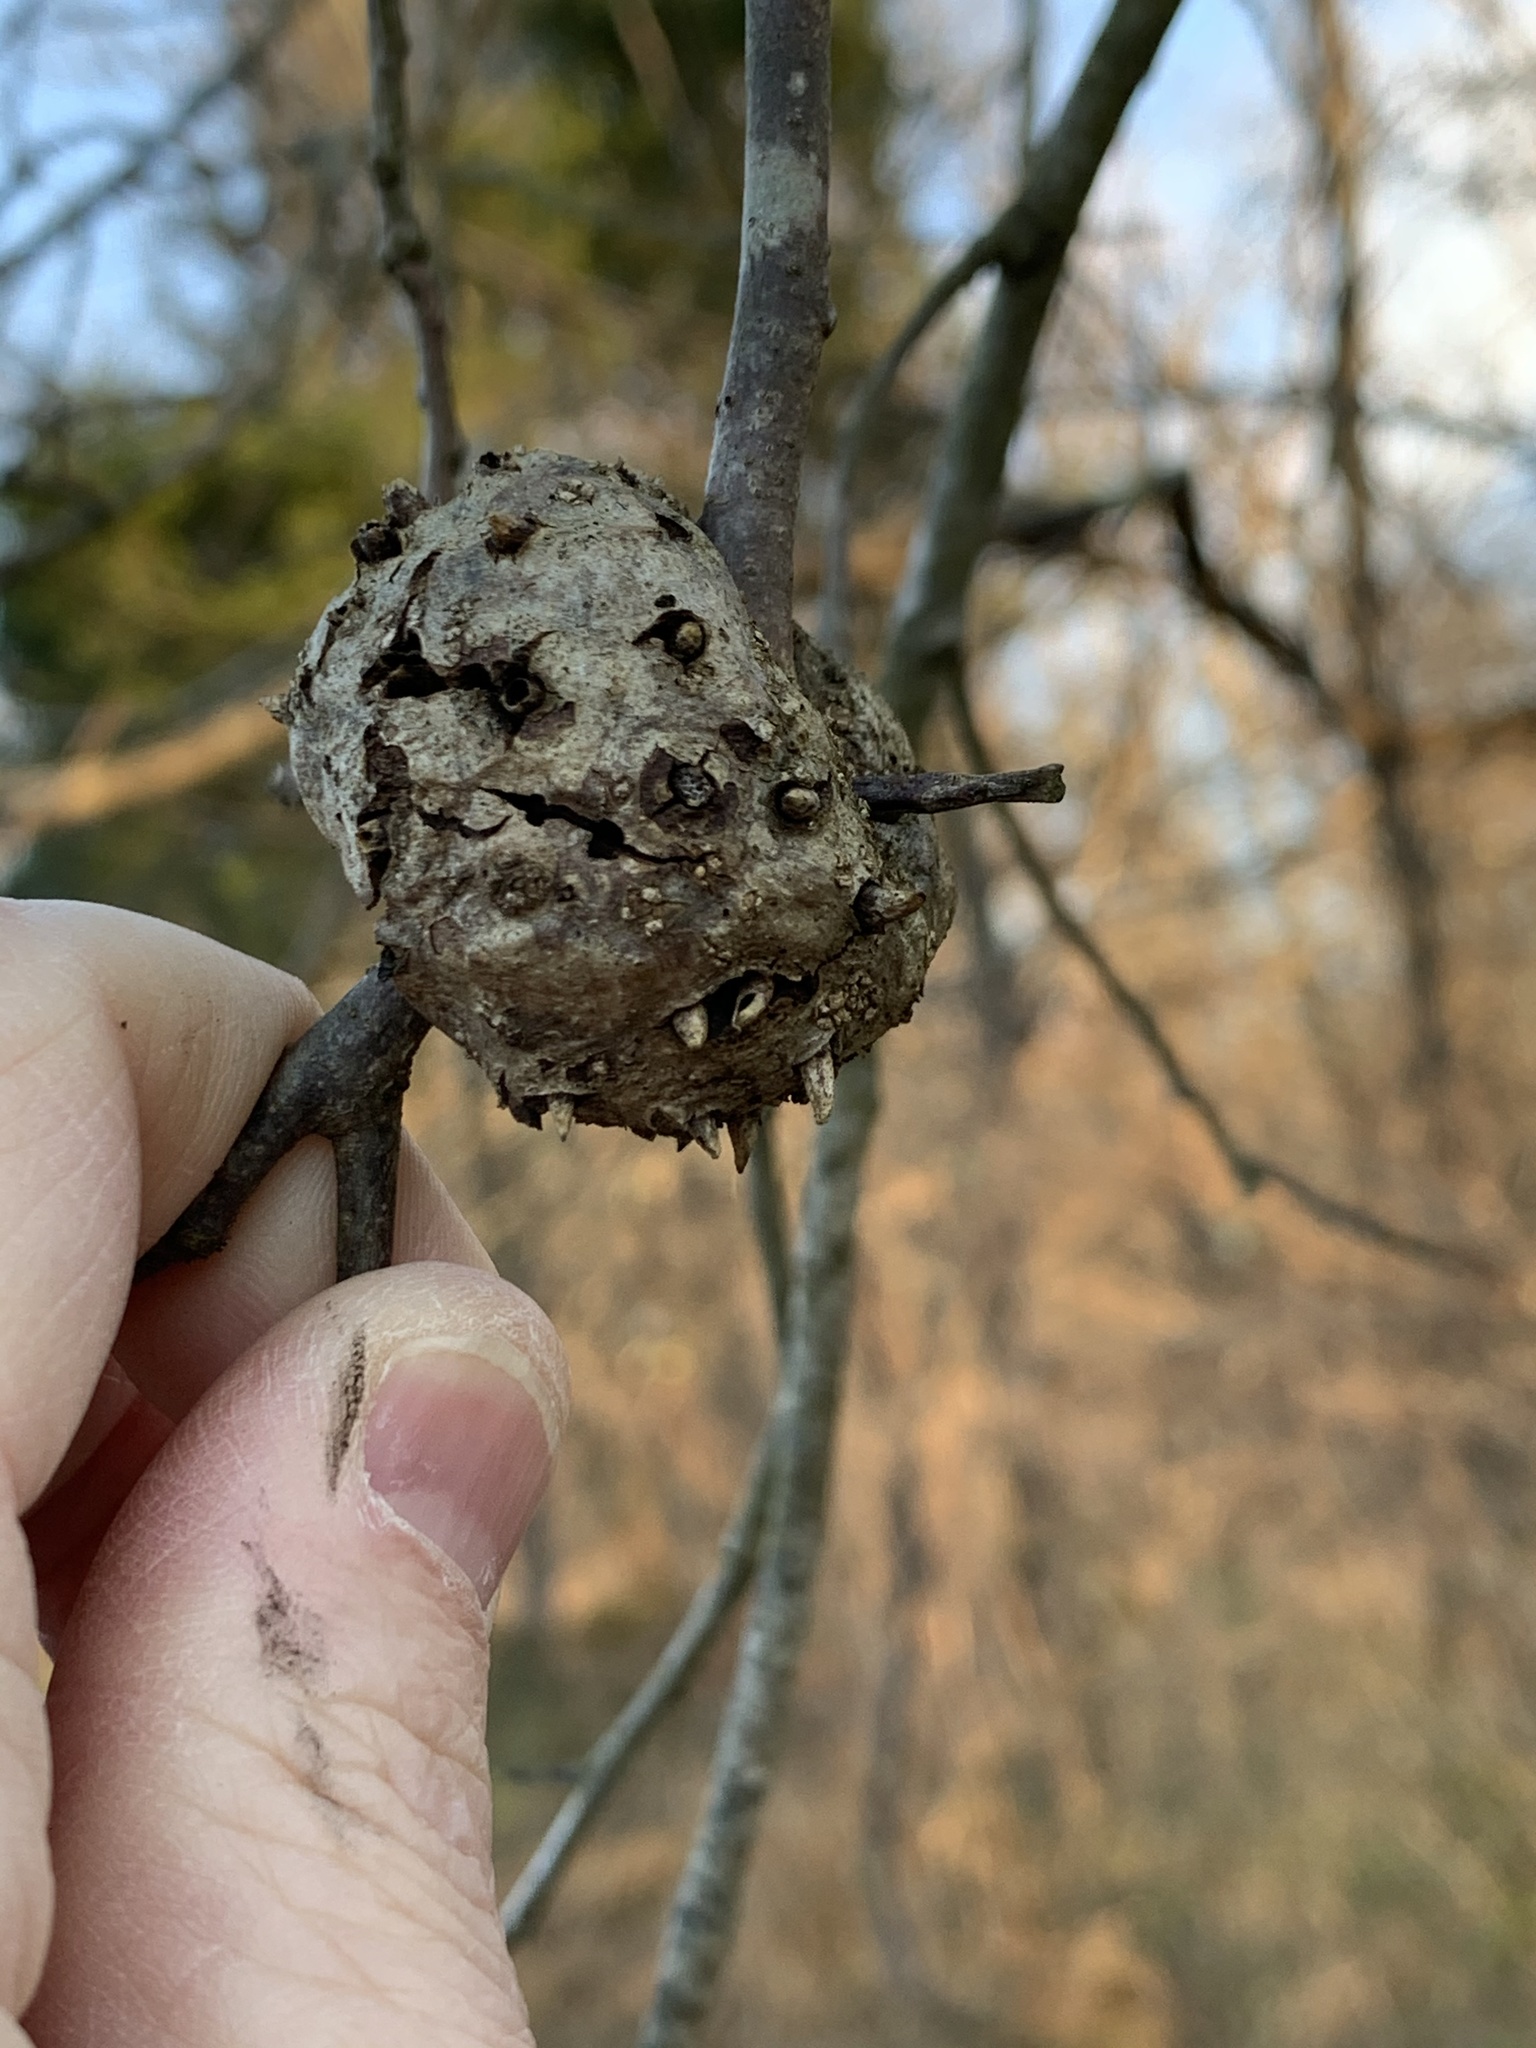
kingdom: Animalia
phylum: Arthropoda
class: Insecta
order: Hymenoptera
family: Cynipidae
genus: Callirhytis
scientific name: Callirhytis
